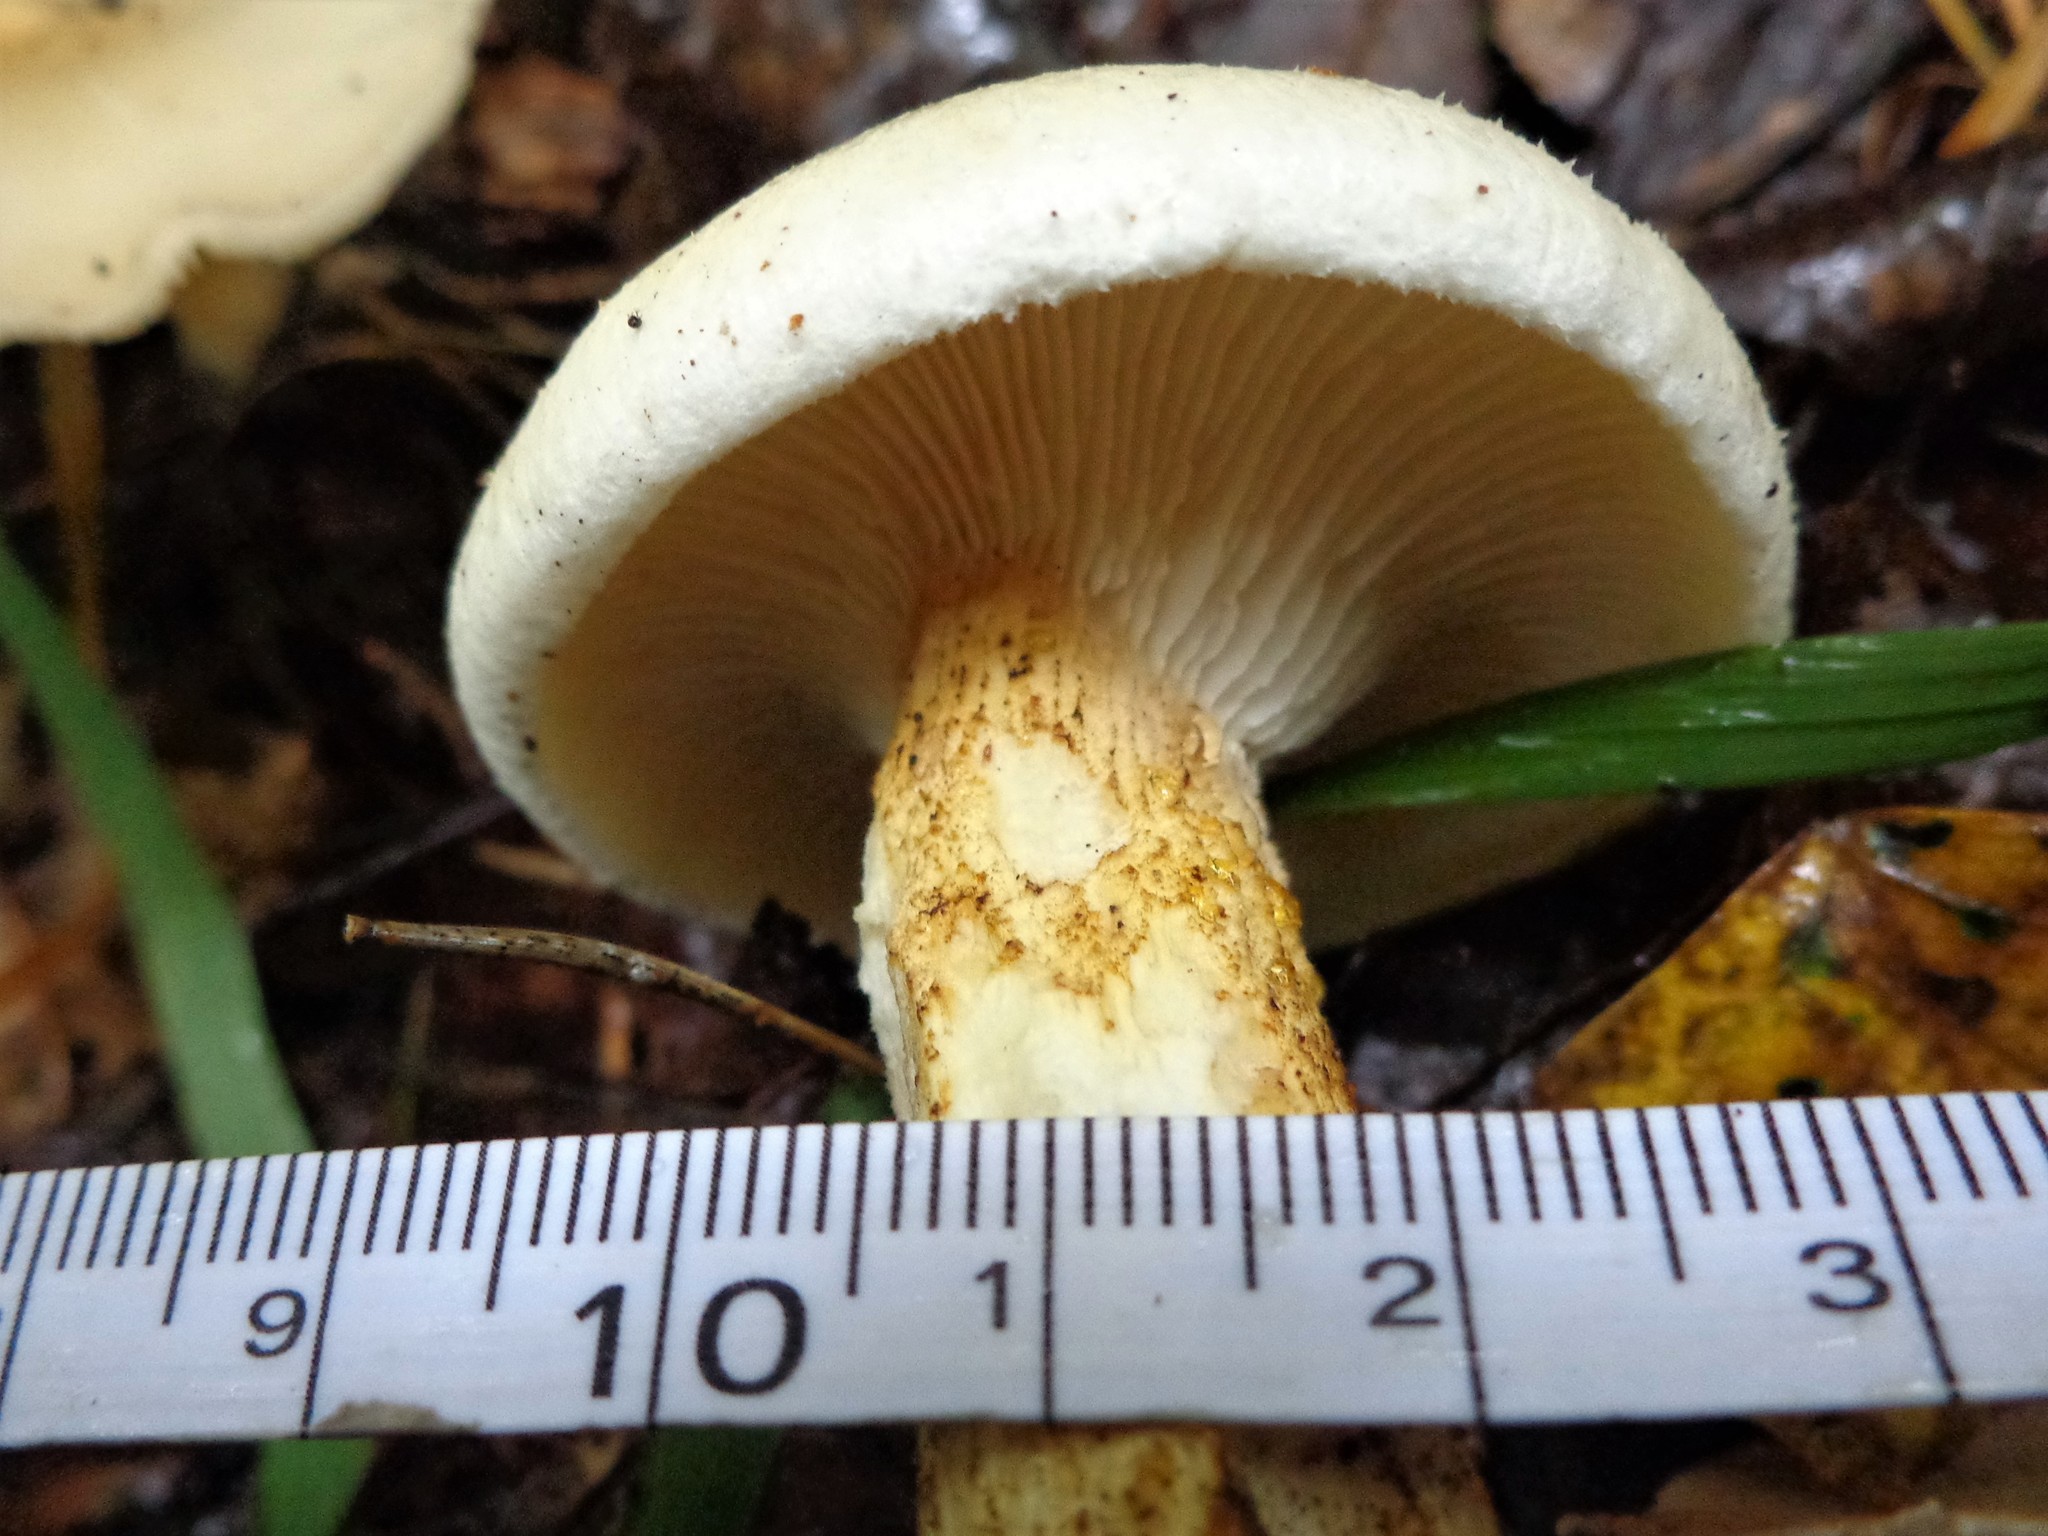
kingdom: Fungi
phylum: Basidiomycota
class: Agaricomycetes
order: Gloeophyllales
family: Gloeophyllaceae
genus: Neolentinus
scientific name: Neolentinus lepideus
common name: Scaly sawgill
